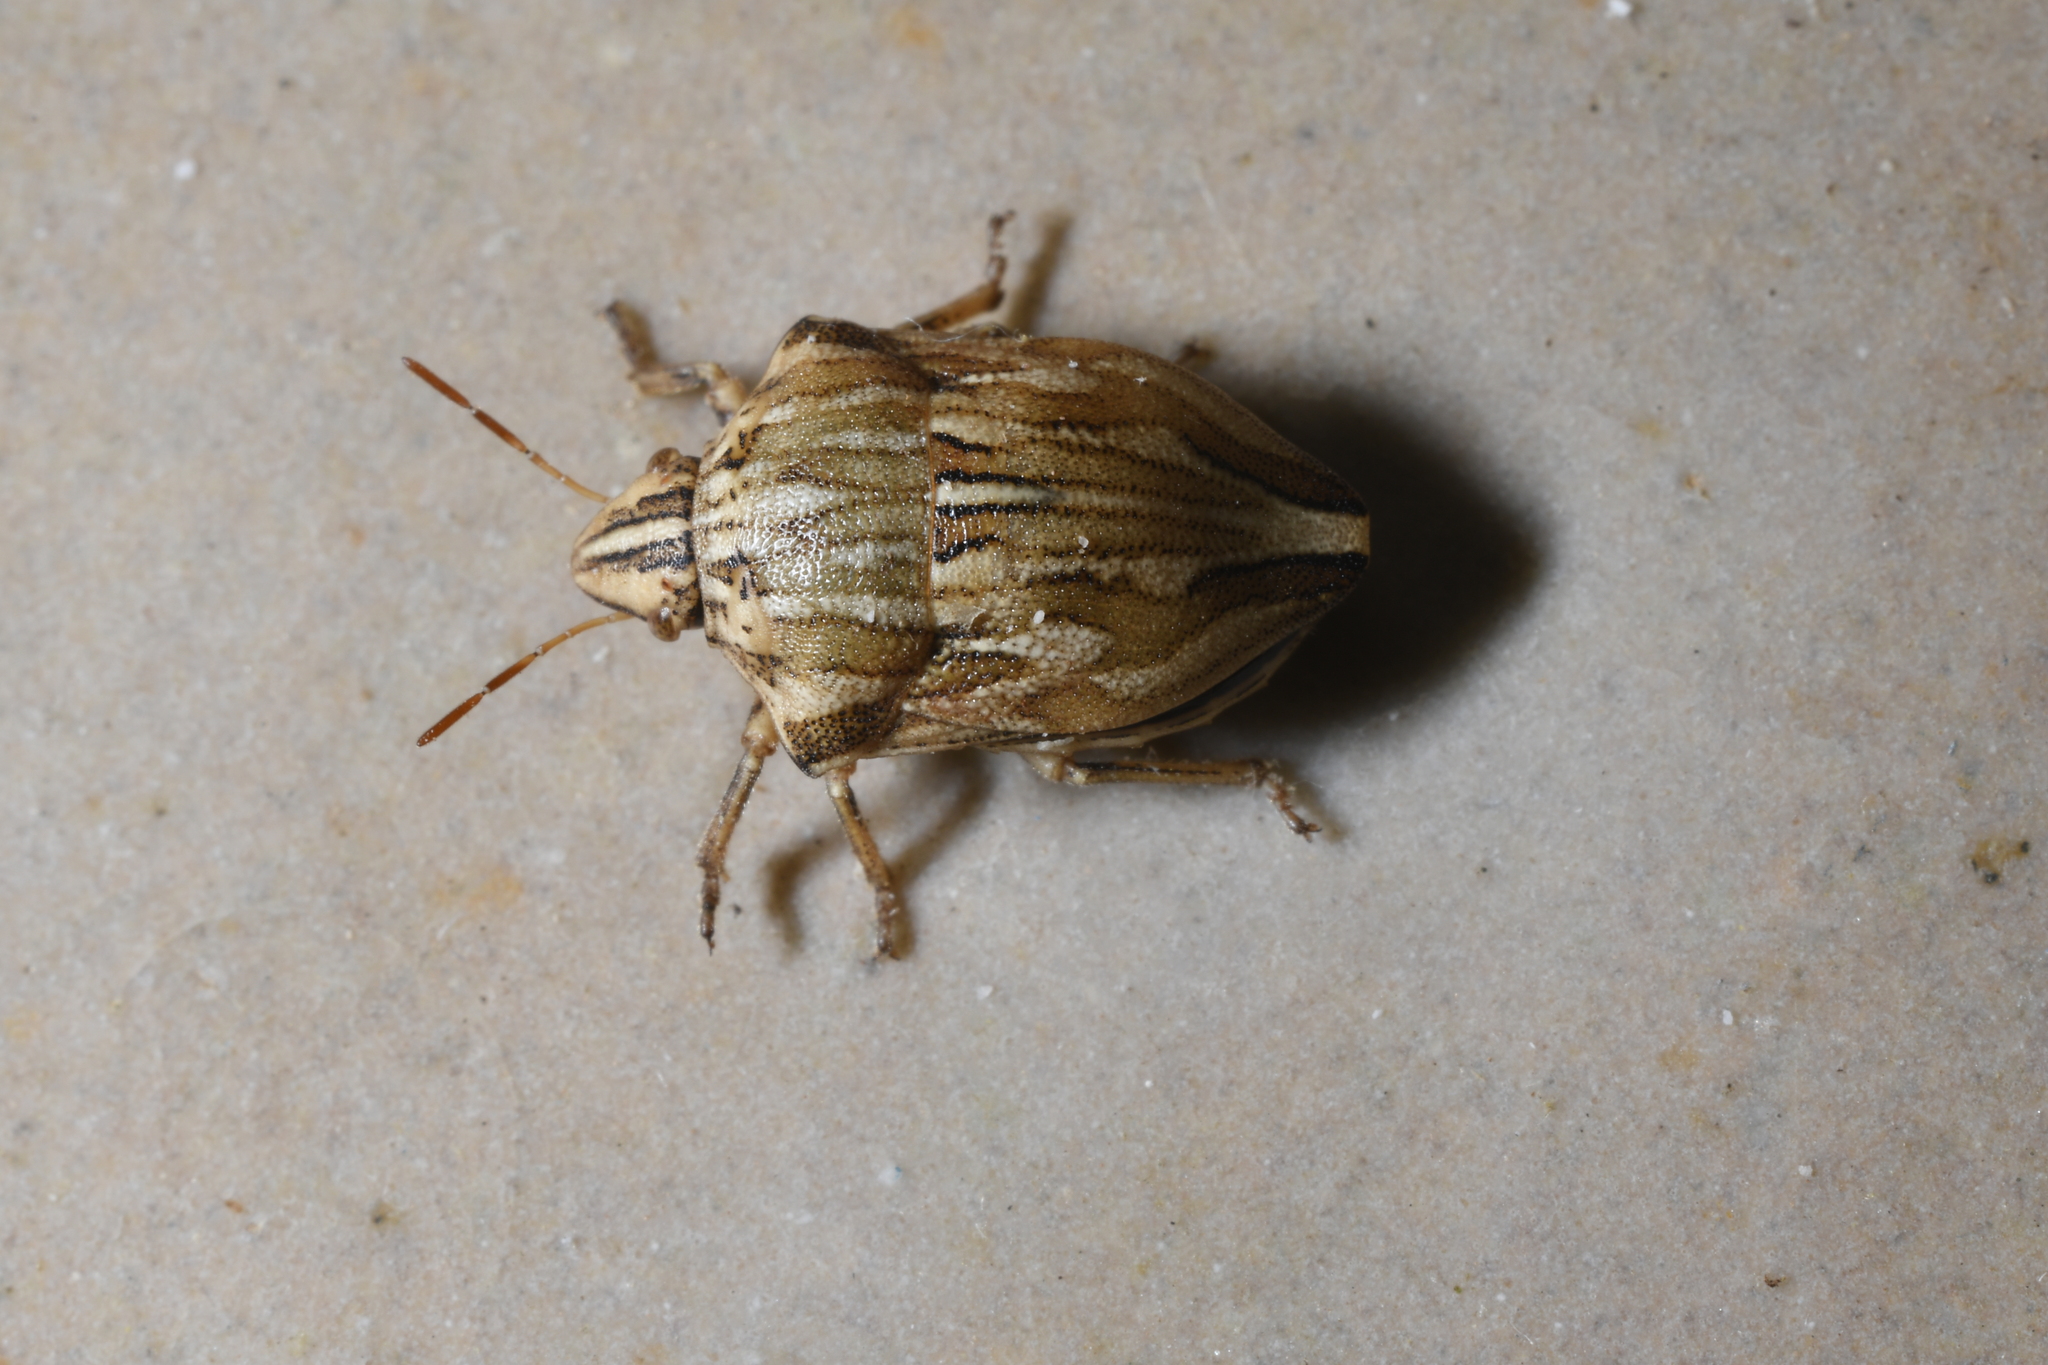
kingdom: Animalia
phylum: Arthropoda
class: Insecta
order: Hemiptera
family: Scutelleridae
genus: Odontotarsus
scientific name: Odontotarsus robustus
